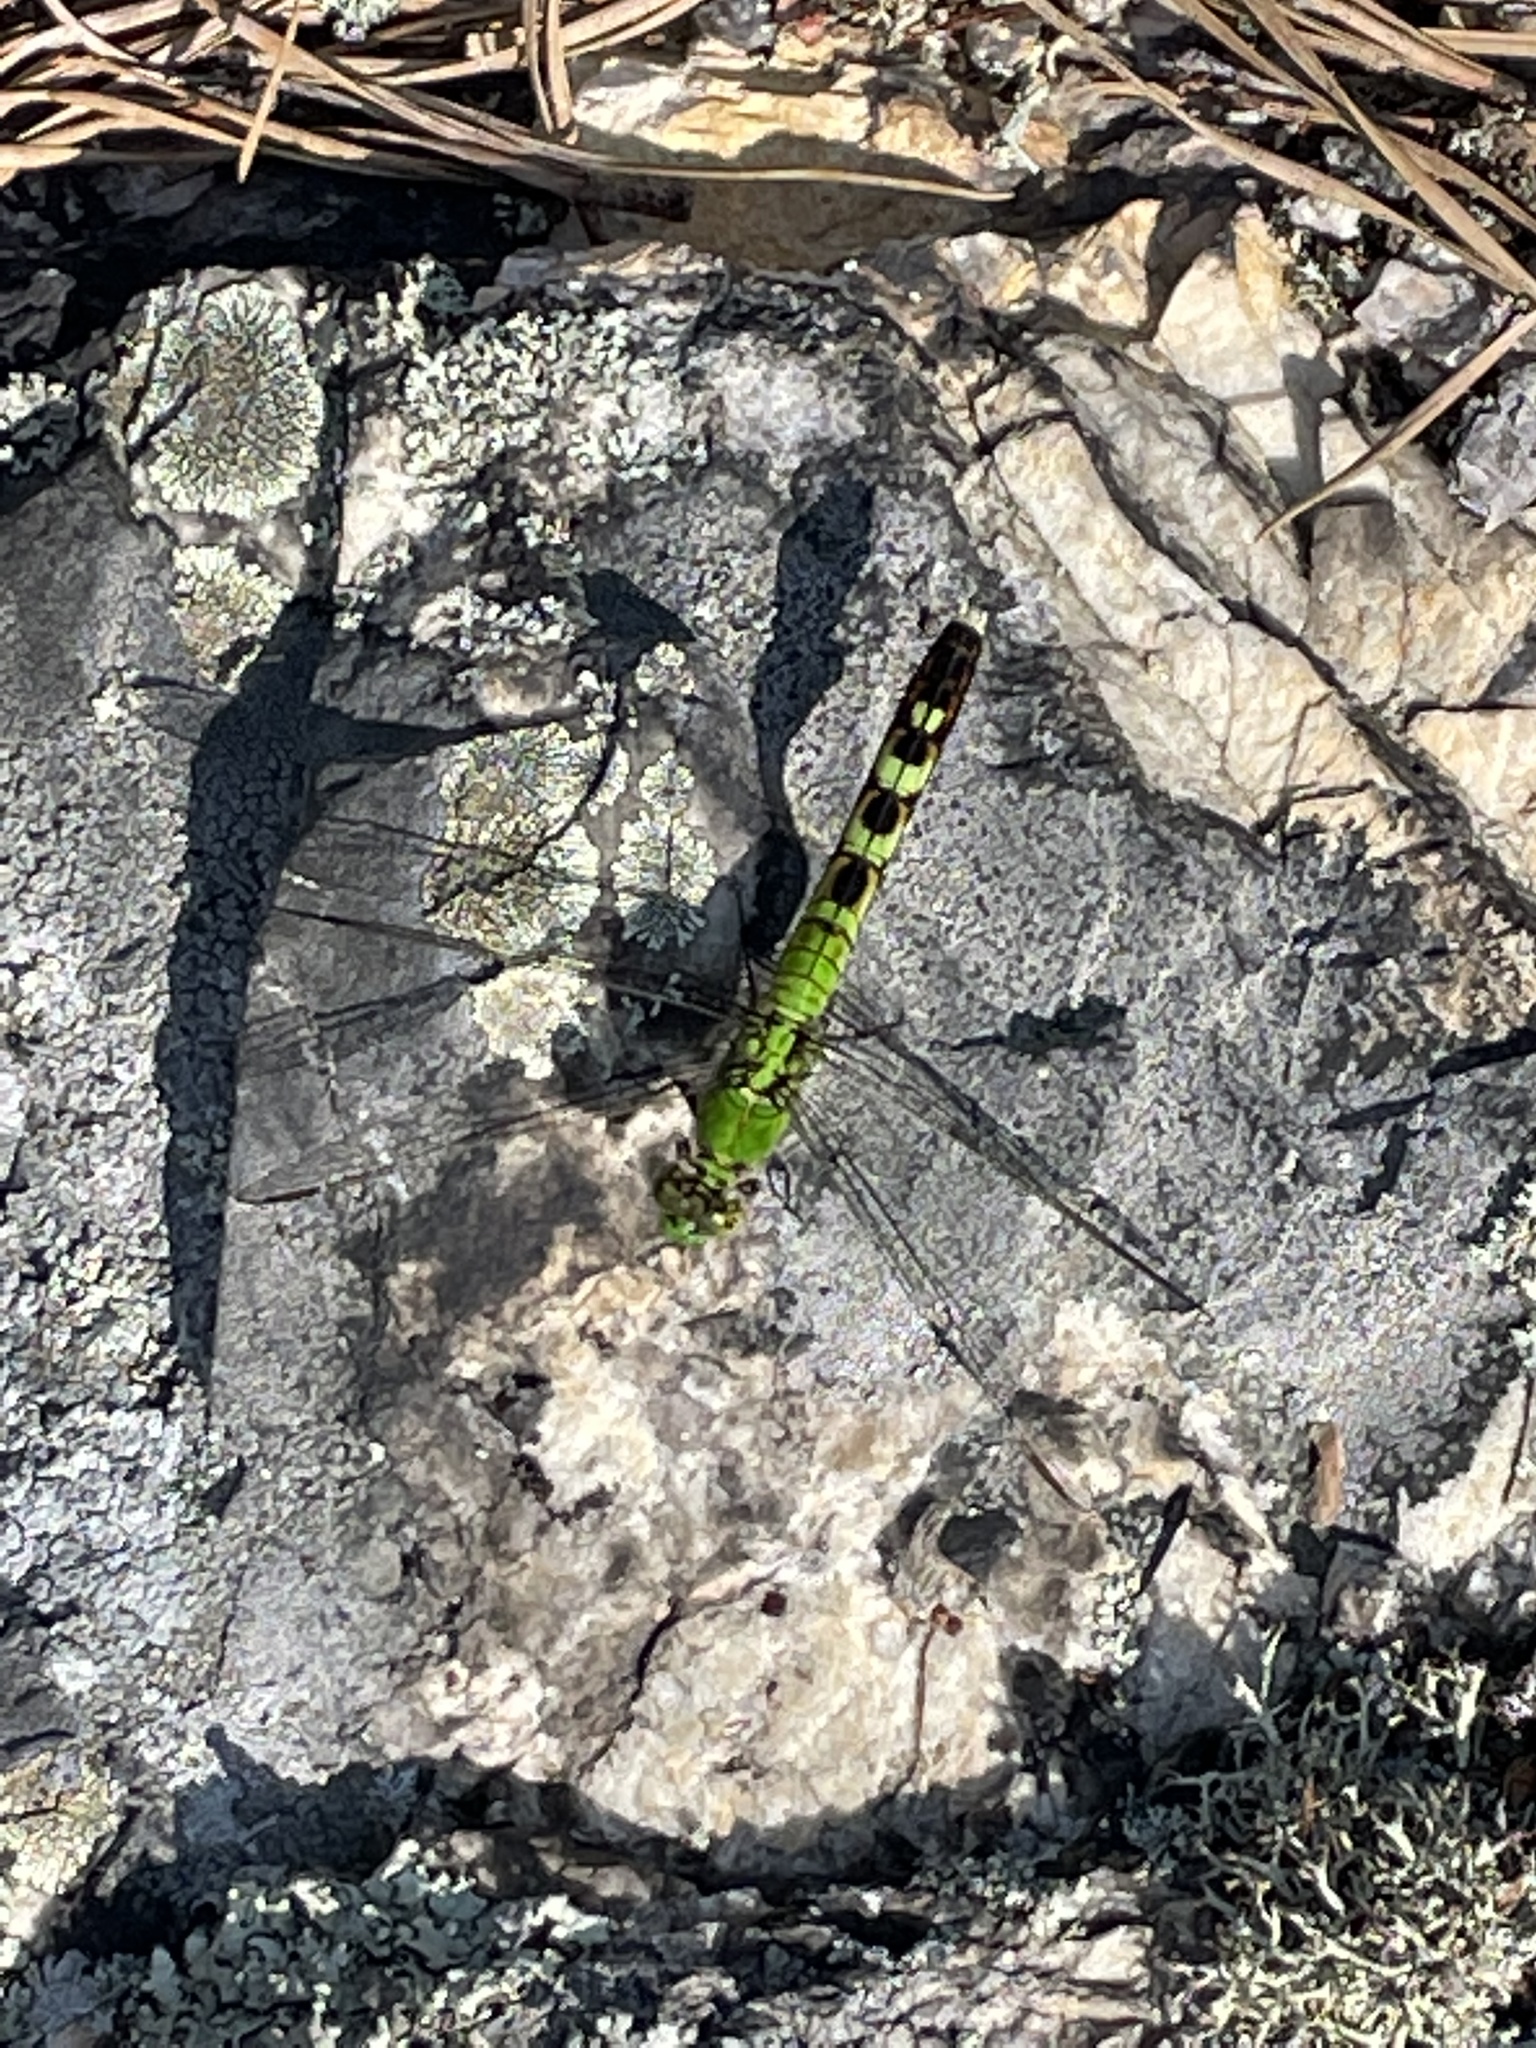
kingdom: Animalia
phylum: Arthropoda
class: Insecta
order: Odonata
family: Libellulidae
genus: Erythemis
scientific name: Erythemis simplicicollis
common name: Eastern pondhawk
